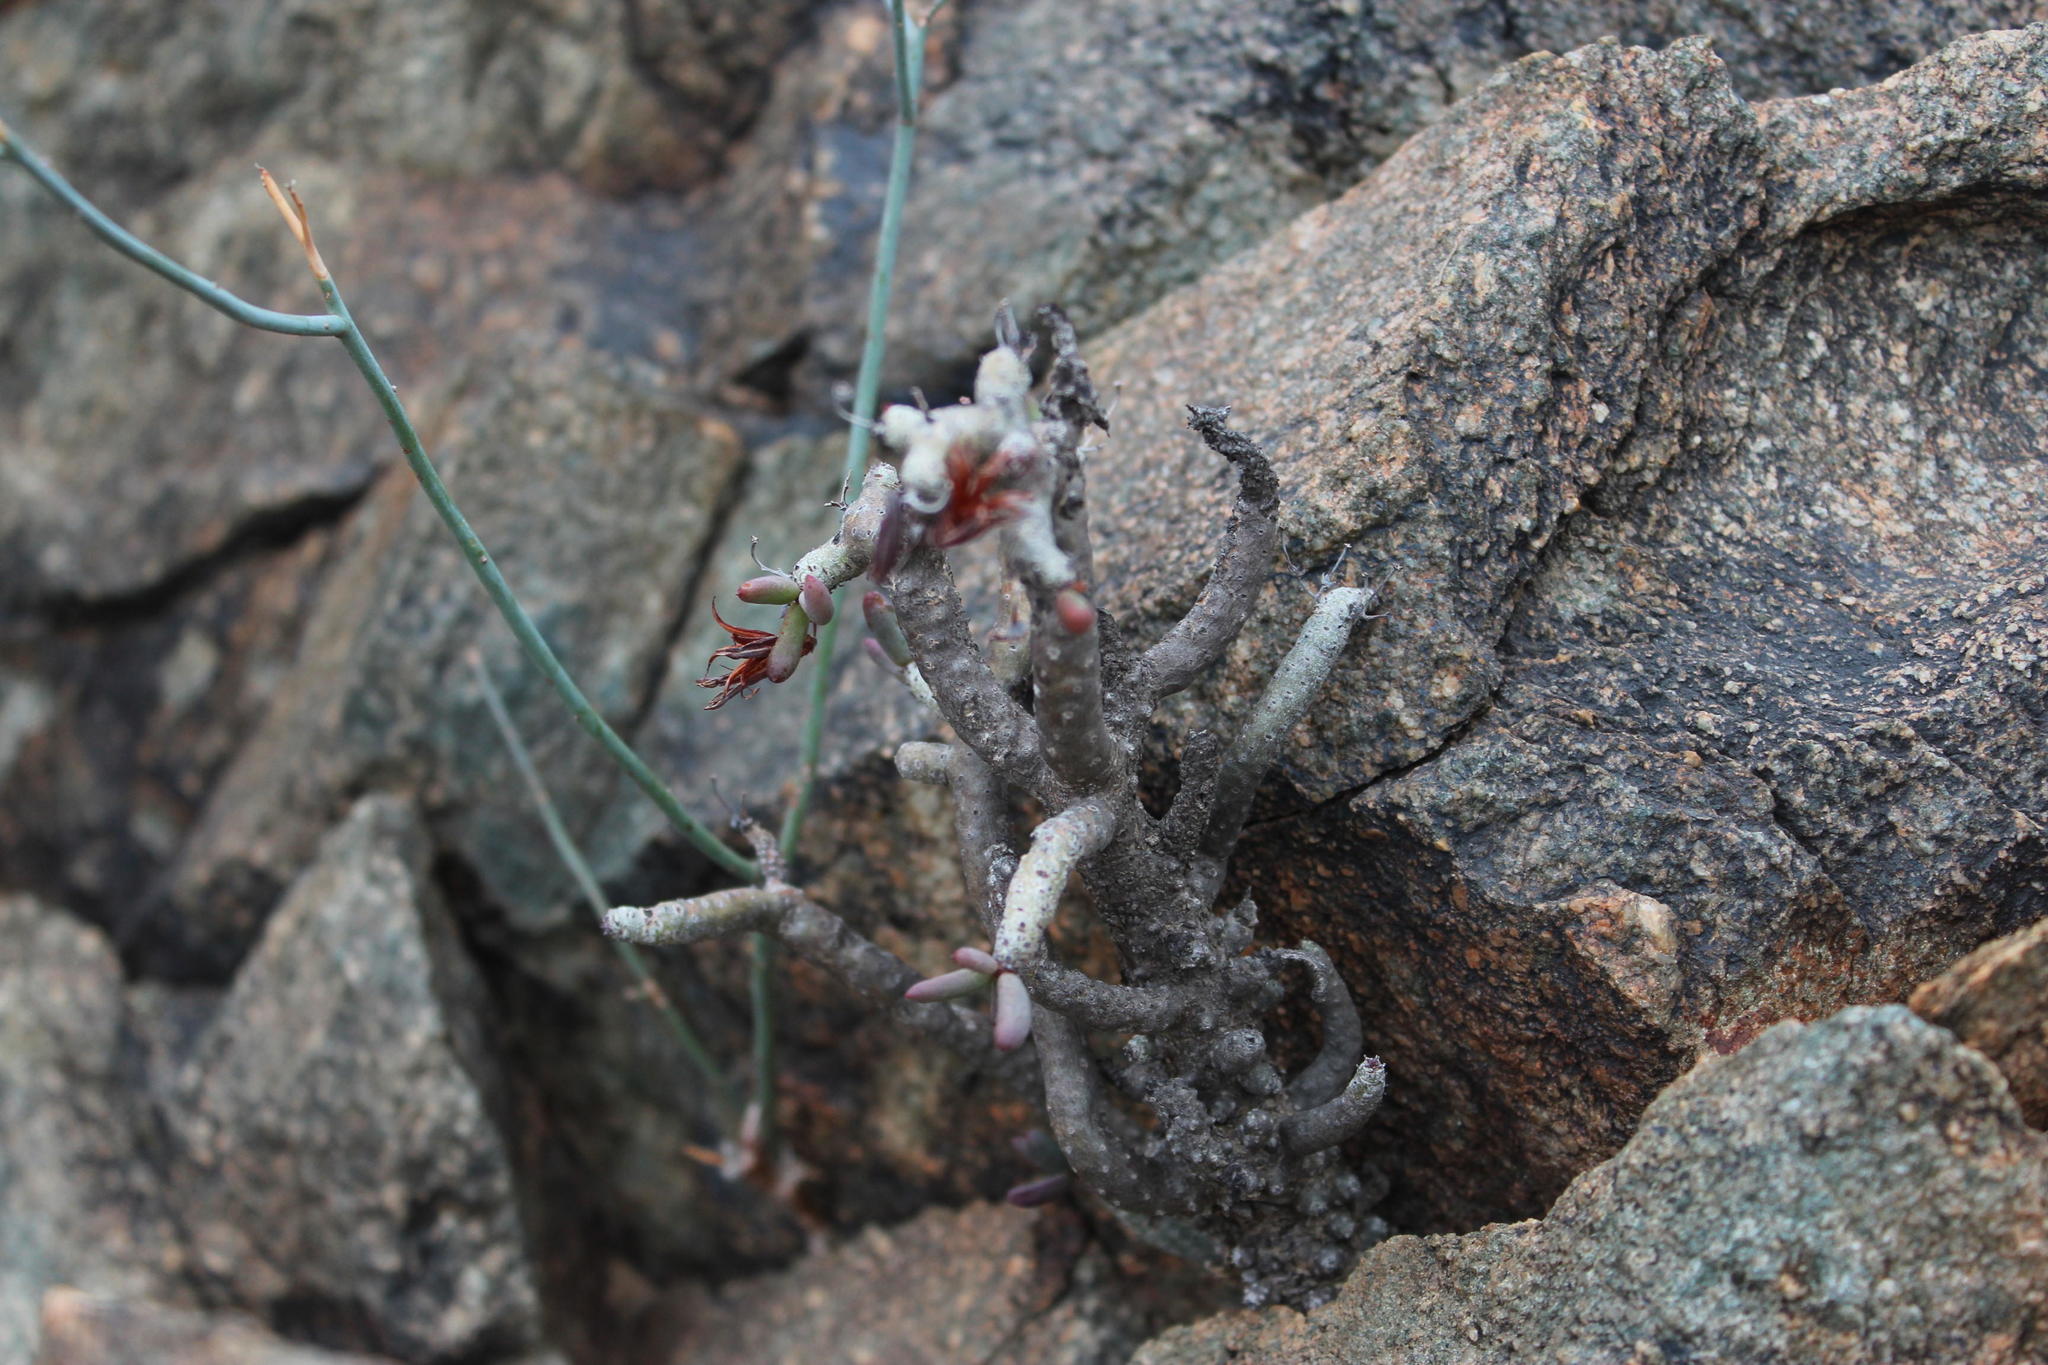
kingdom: Plantae
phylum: Tracheophyta
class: Magnoliopsida
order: Saxifragales
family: Crassulaceae
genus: Tylecodon
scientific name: Tylecodon buchholzianus
